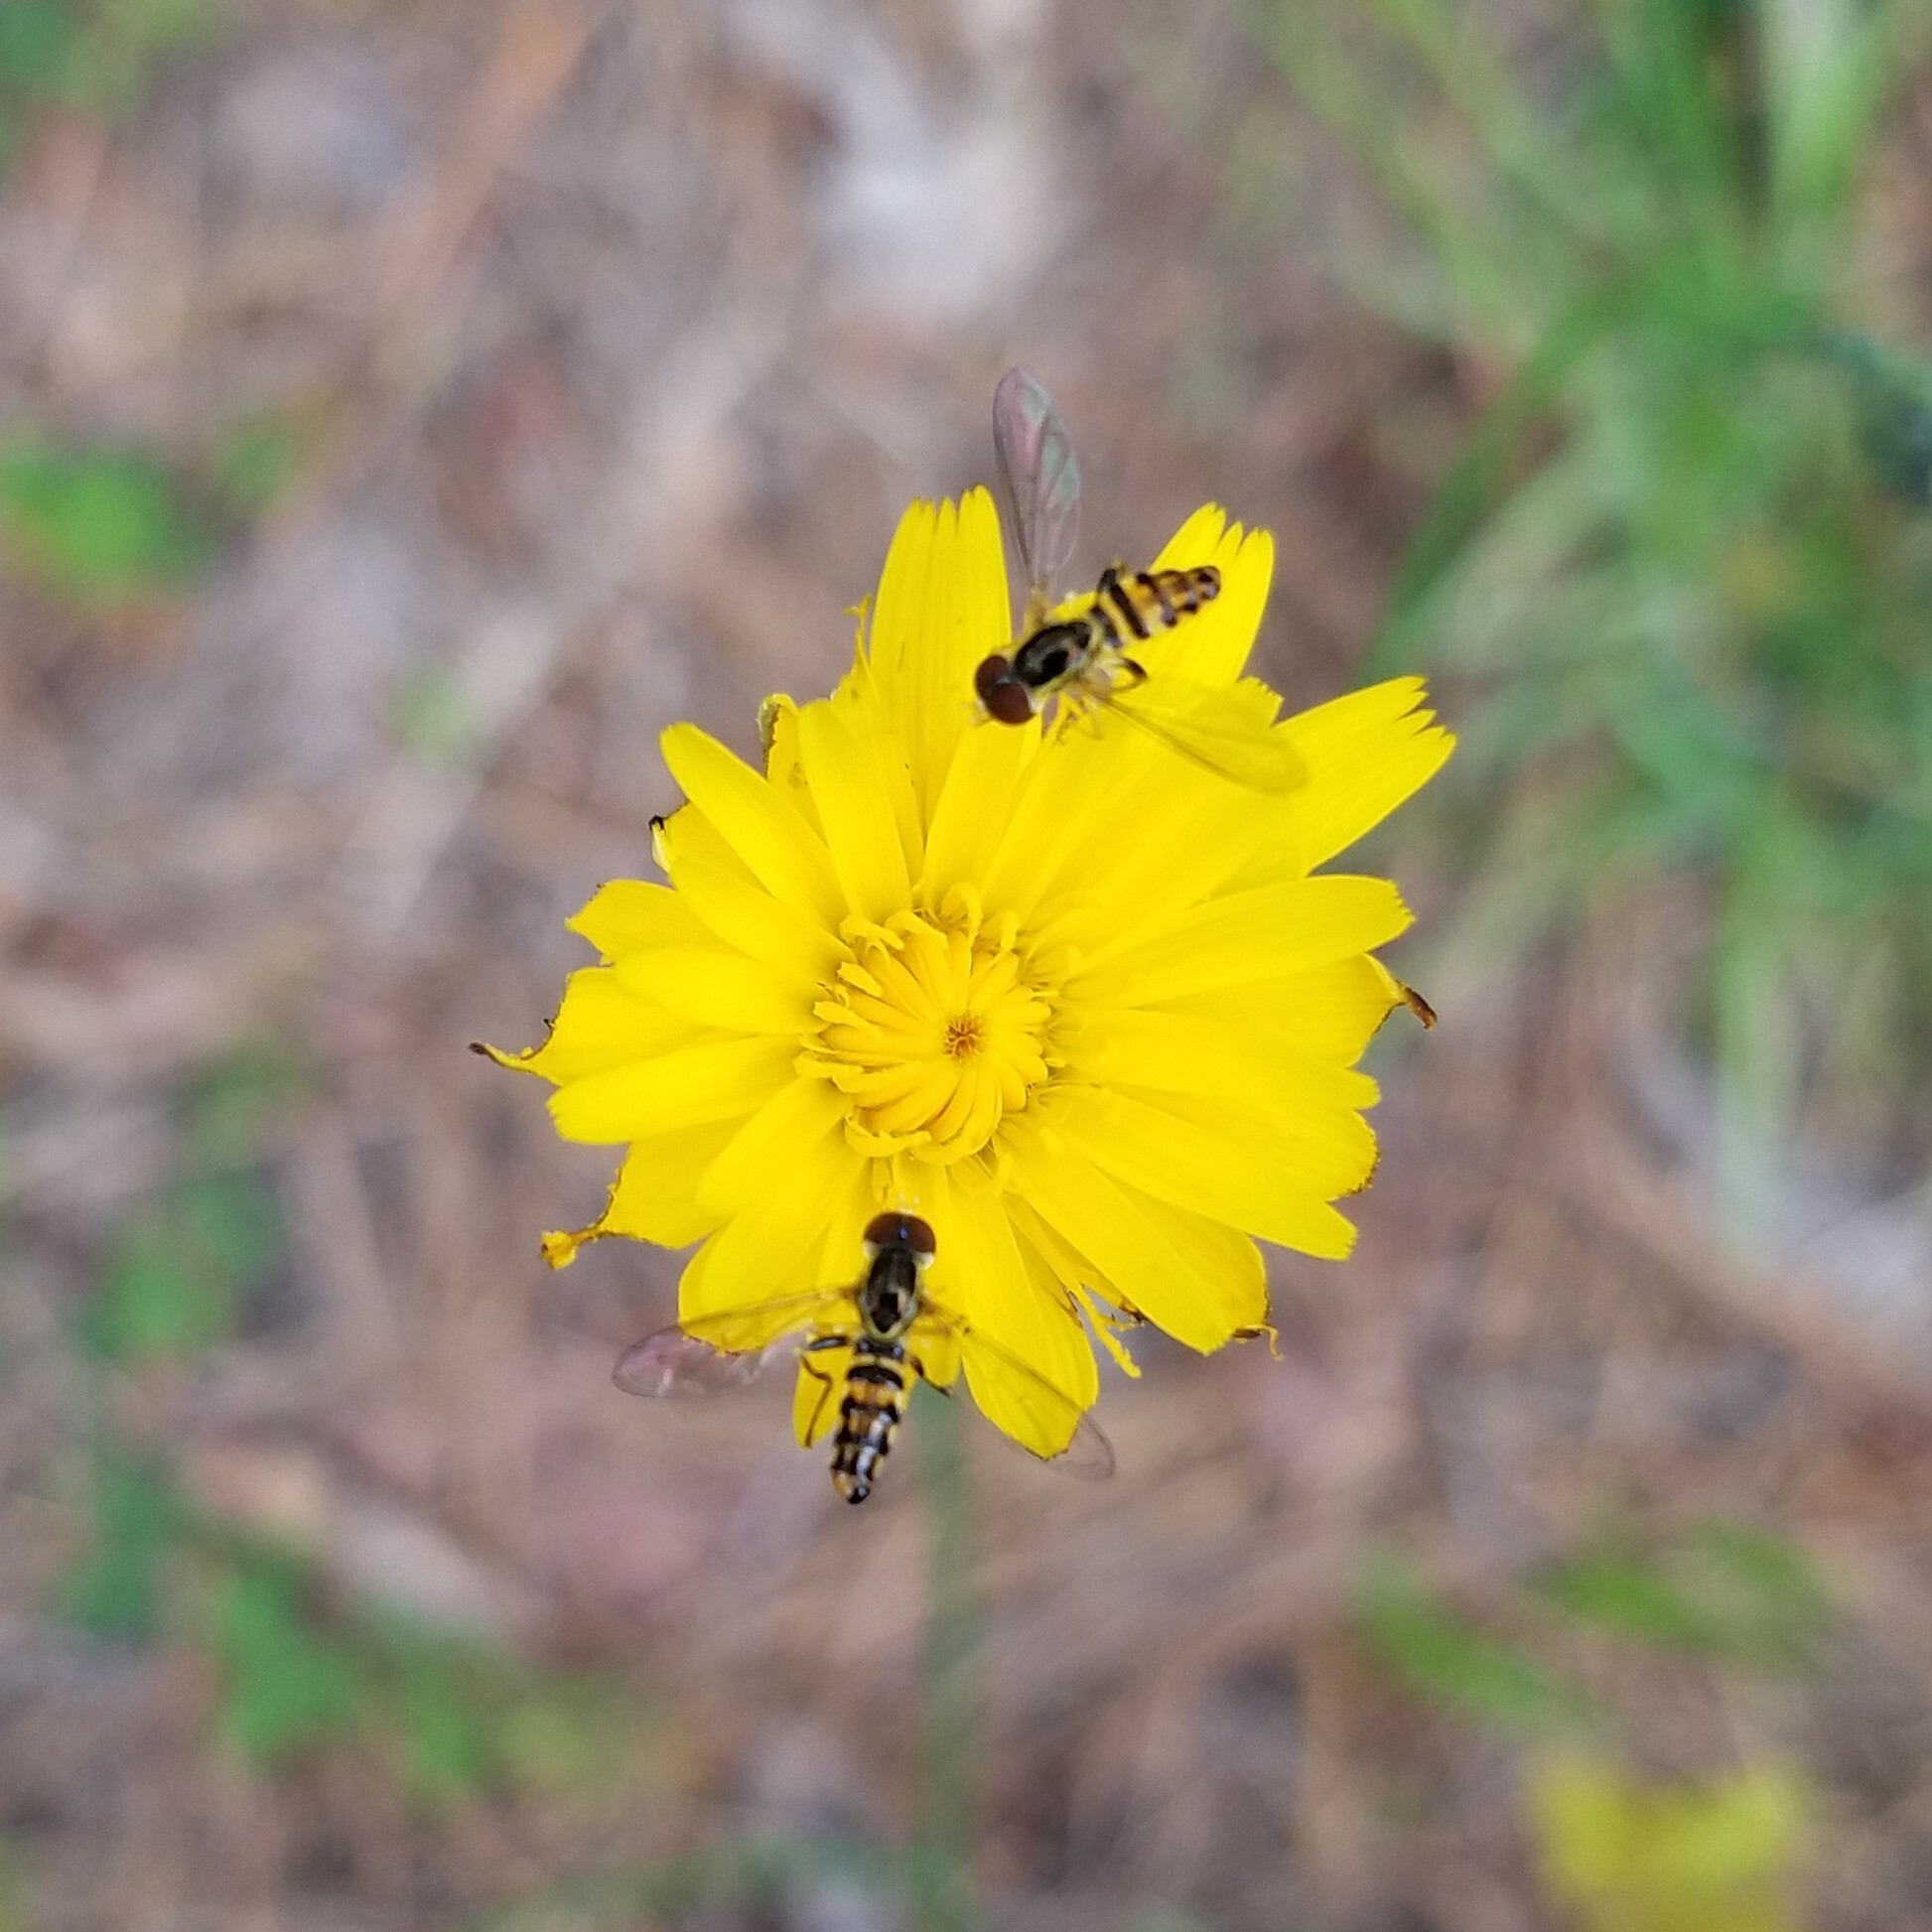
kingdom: Animalia
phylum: Arthropoda
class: Insecta
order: Diptera
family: Syrphidae
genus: Toxomerus
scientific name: Toxomerus geminatus
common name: Eastern calligrapher
